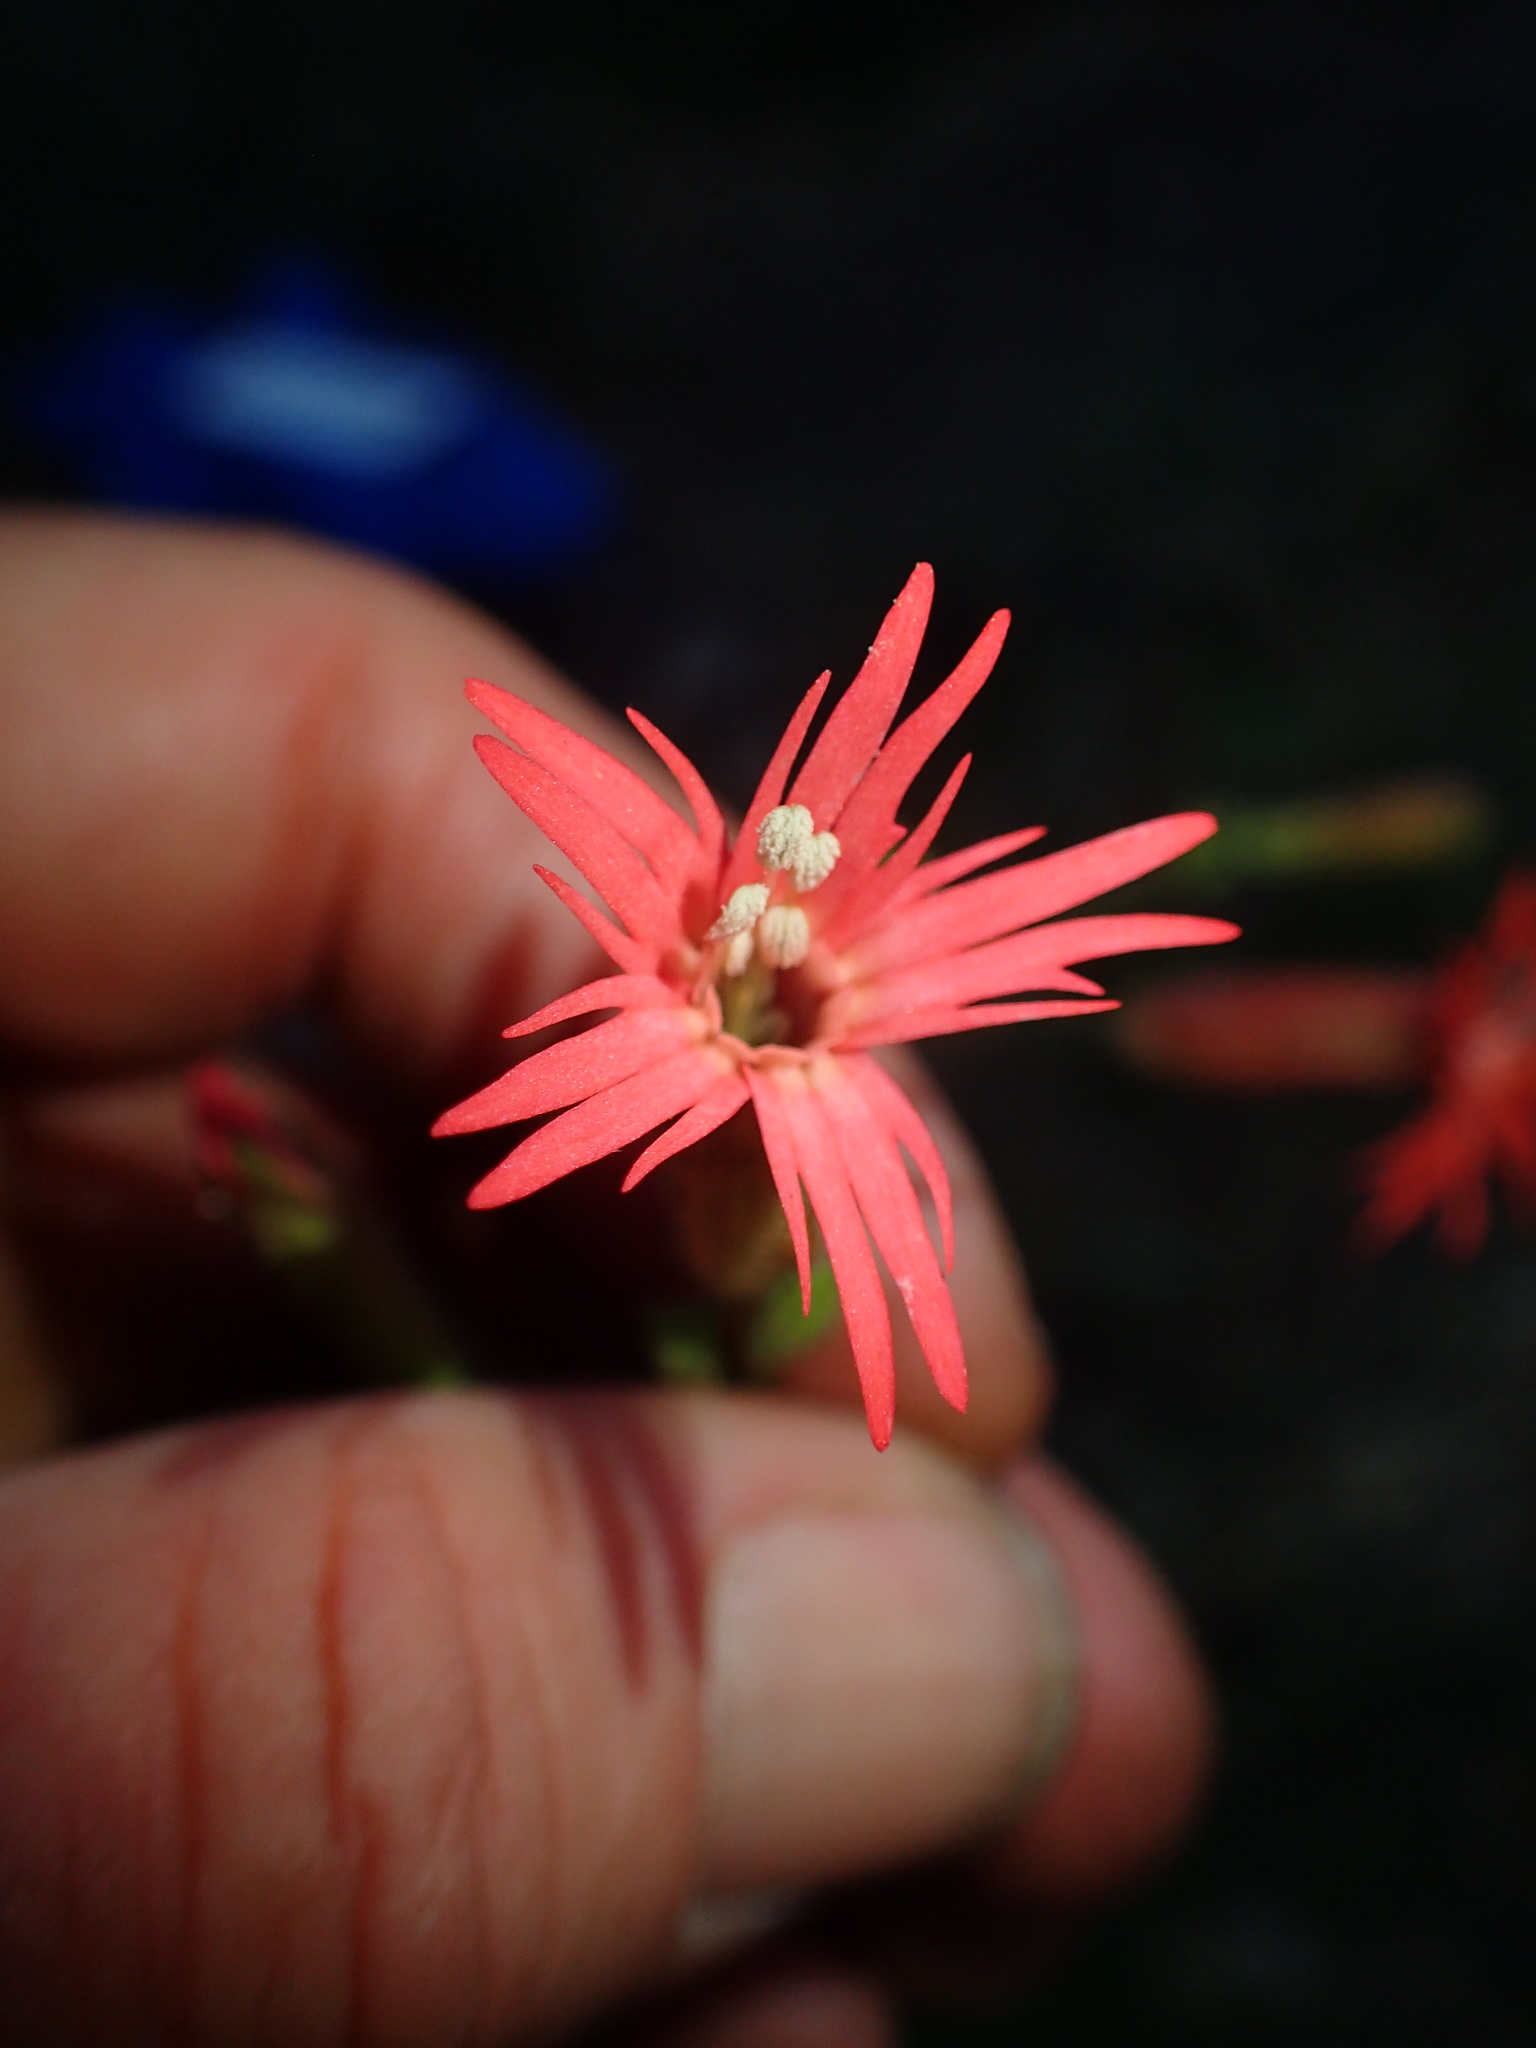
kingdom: Plantae
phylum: Tracheophyta
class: Magnoliopsida
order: Caryophyllales
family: Caryophyllaceae
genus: Silene
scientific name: Silene laciniata
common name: Indian-pink
